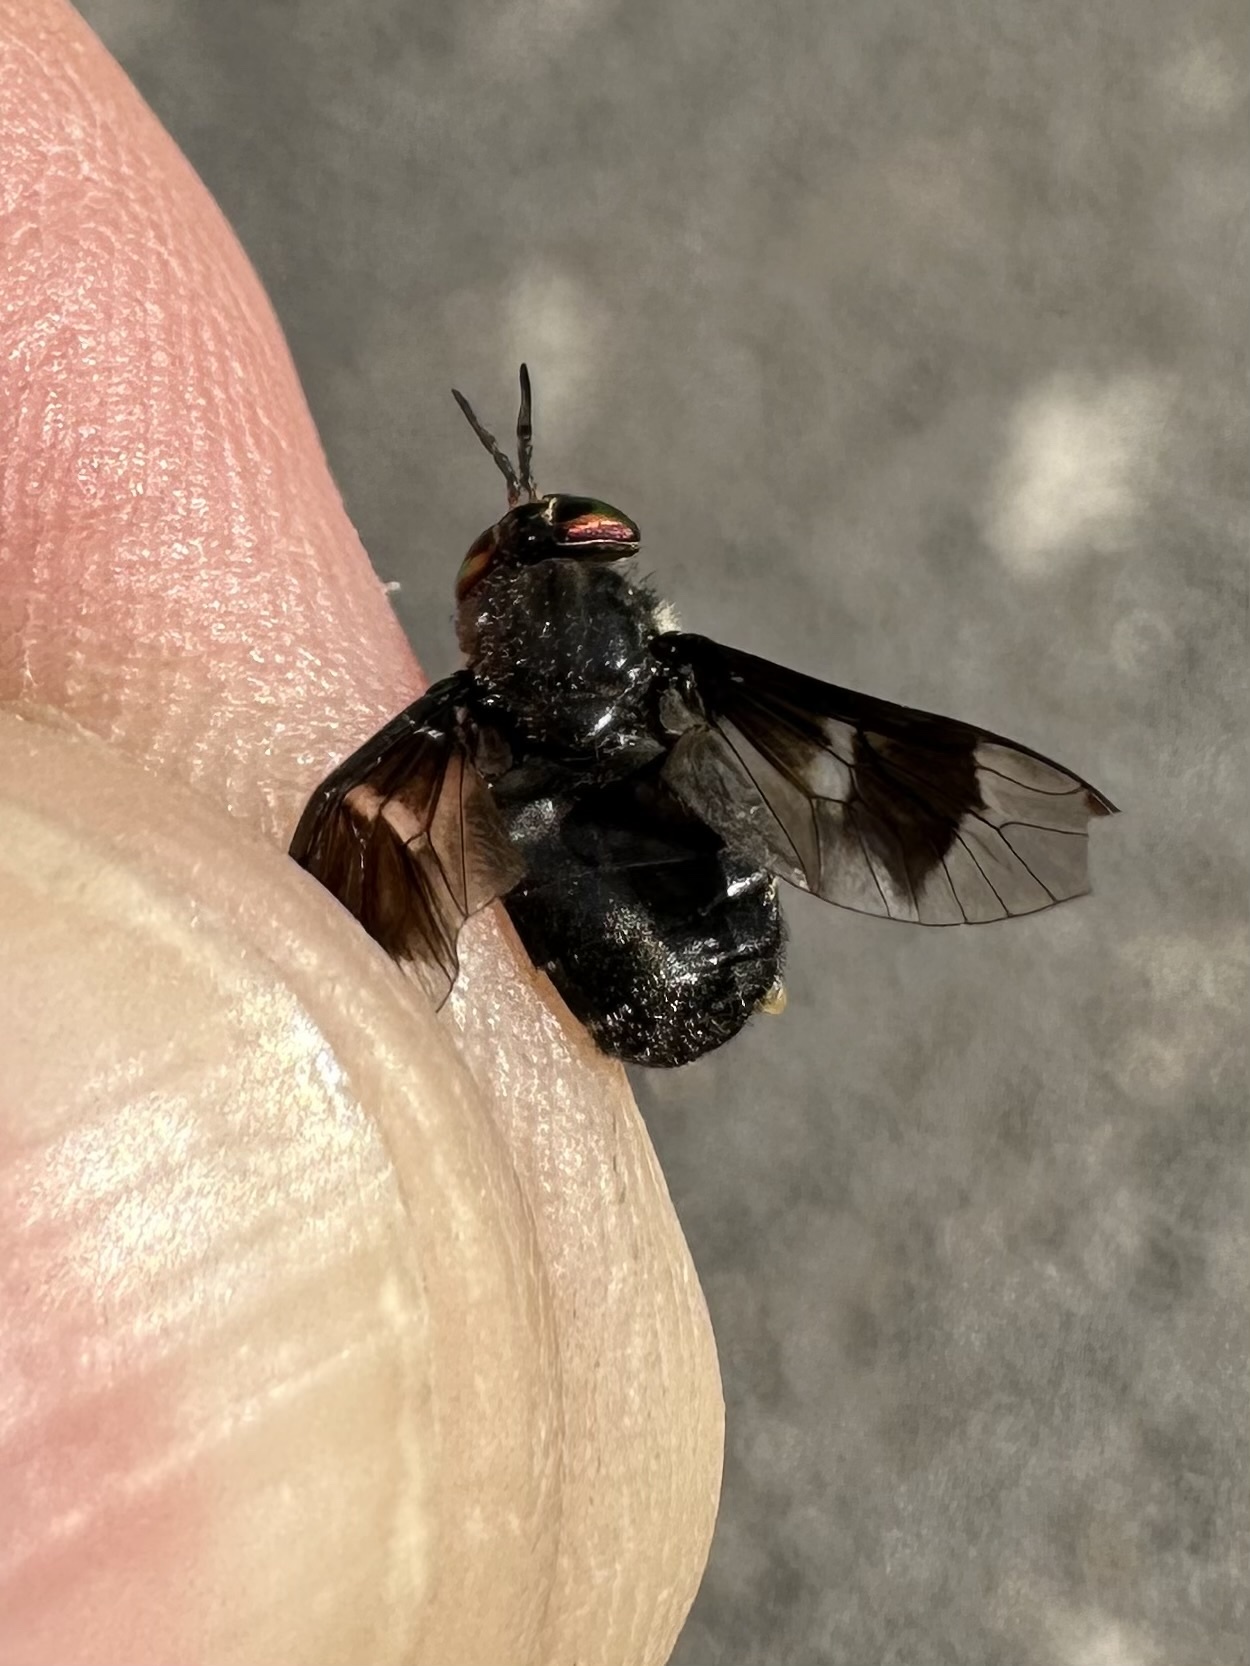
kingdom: Animalia
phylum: Arthropoda
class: Insecta
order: Diptera
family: Tabanidae
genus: Chrysops
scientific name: Chrysops ater
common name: Dark deer fly
